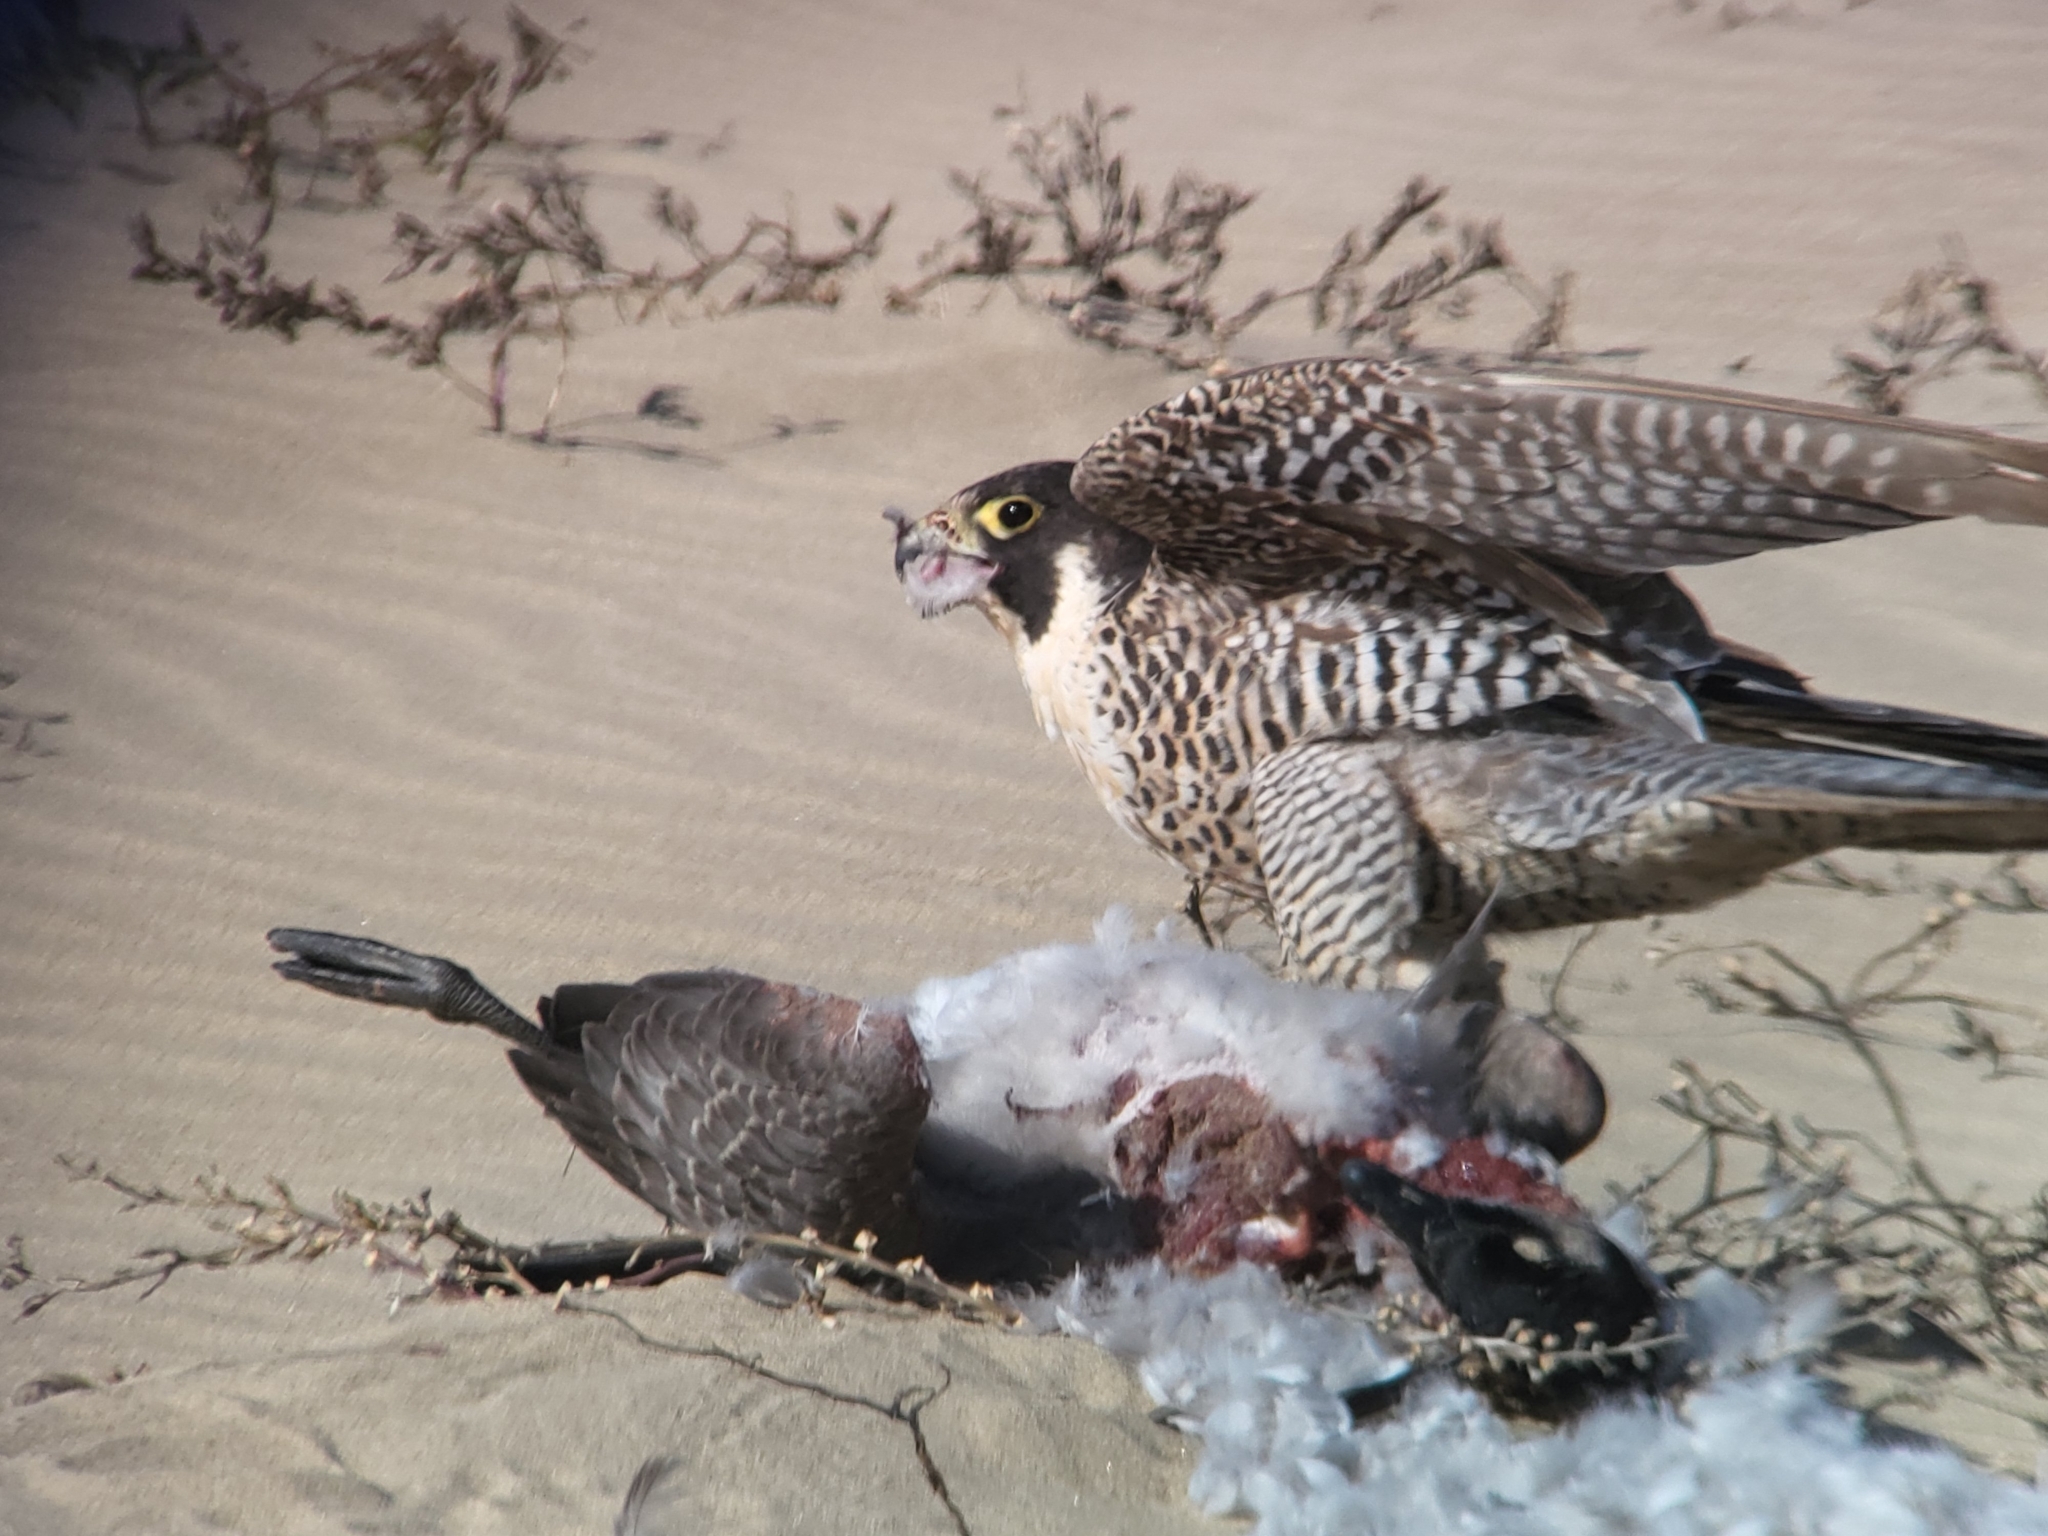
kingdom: Animalia
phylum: Chordata
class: Aves
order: Falconiformes
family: Falconidae
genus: Falco
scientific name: Falco peregrinus
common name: Peregrine falcon
